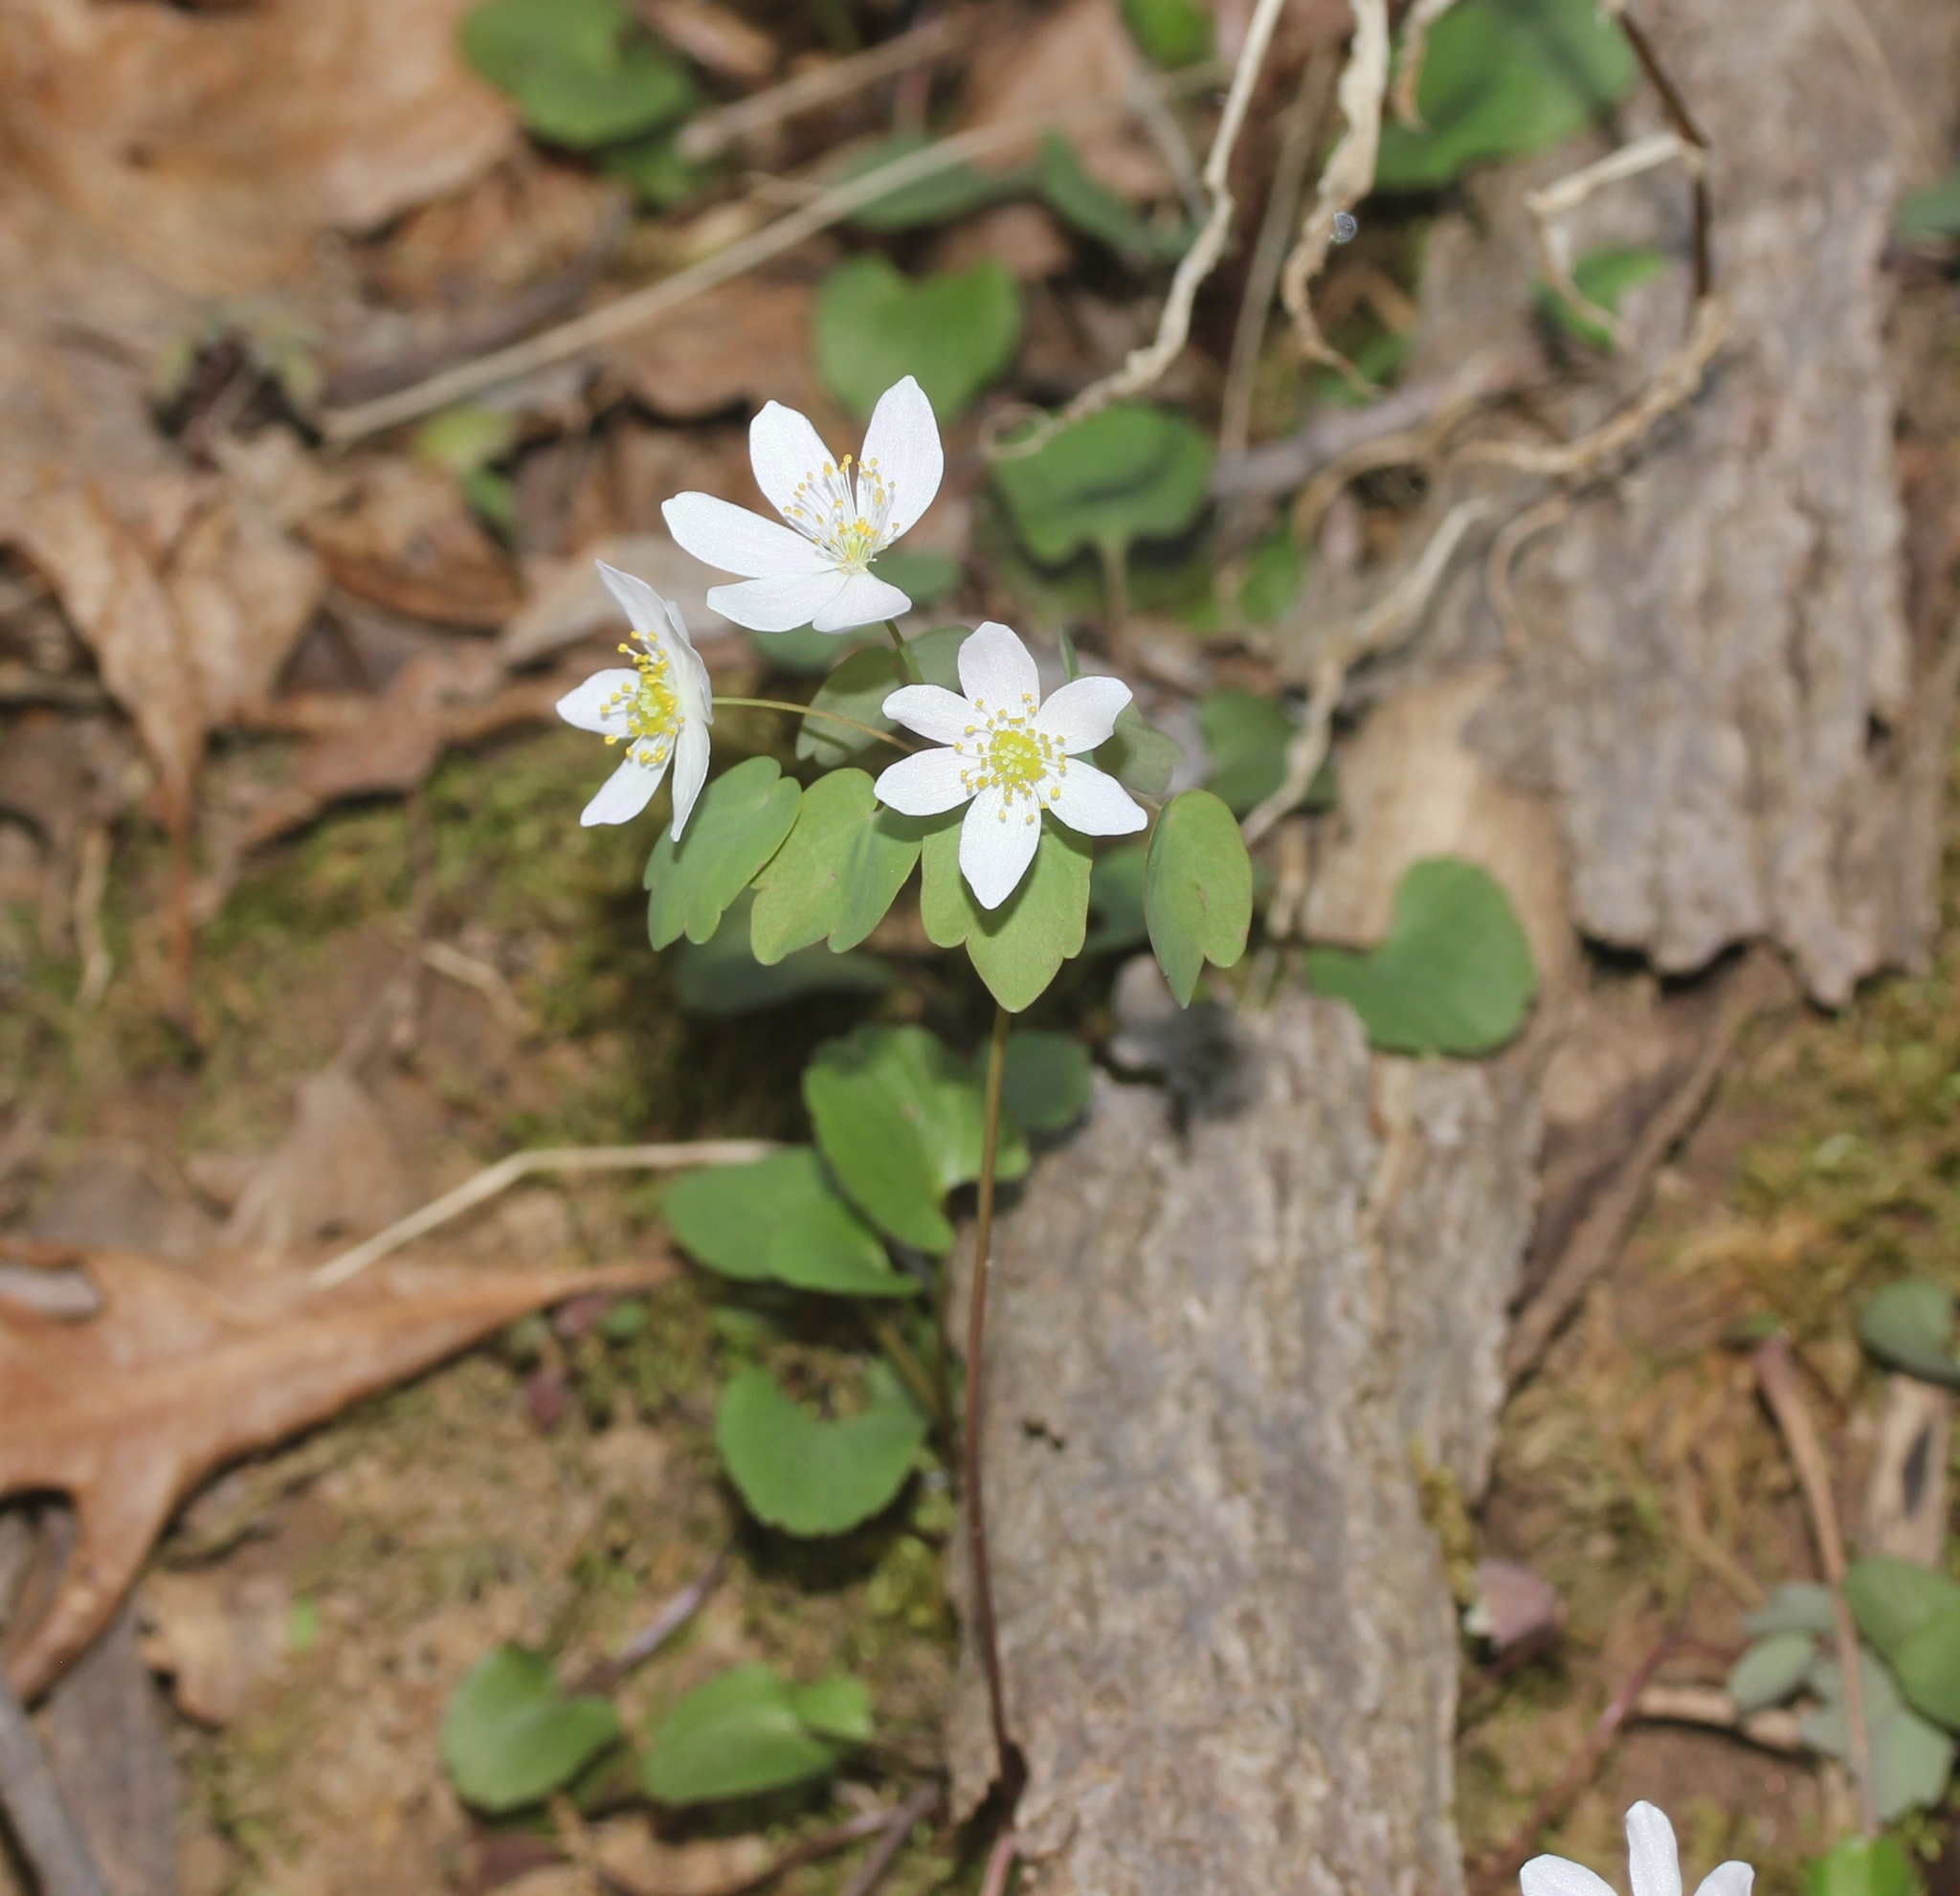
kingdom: Plantae
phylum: Tracheophyta
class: Magnoliopsida
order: Ranunculales
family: Ranunculaceae
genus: Thalictrum
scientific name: Thalictrum thalictroides
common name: Rue-anemone
